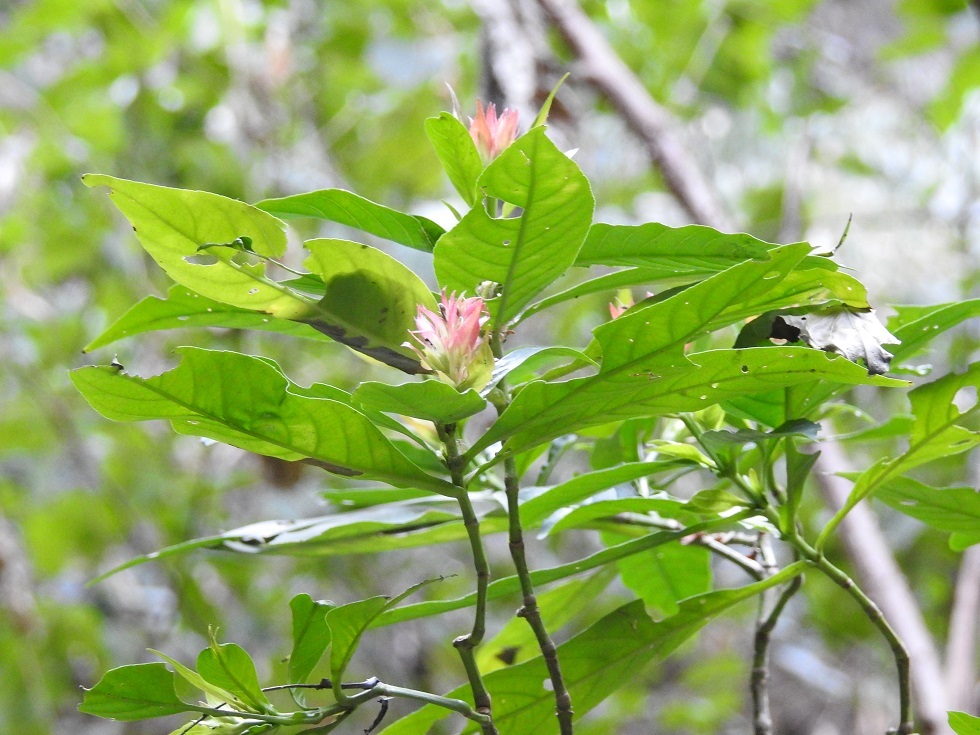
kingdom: Plantae
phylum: Tracheophyta
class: Magnoliopsida
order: Lamiales
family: Acanthaceae
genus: Justicia
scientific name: Justicia mirandae
